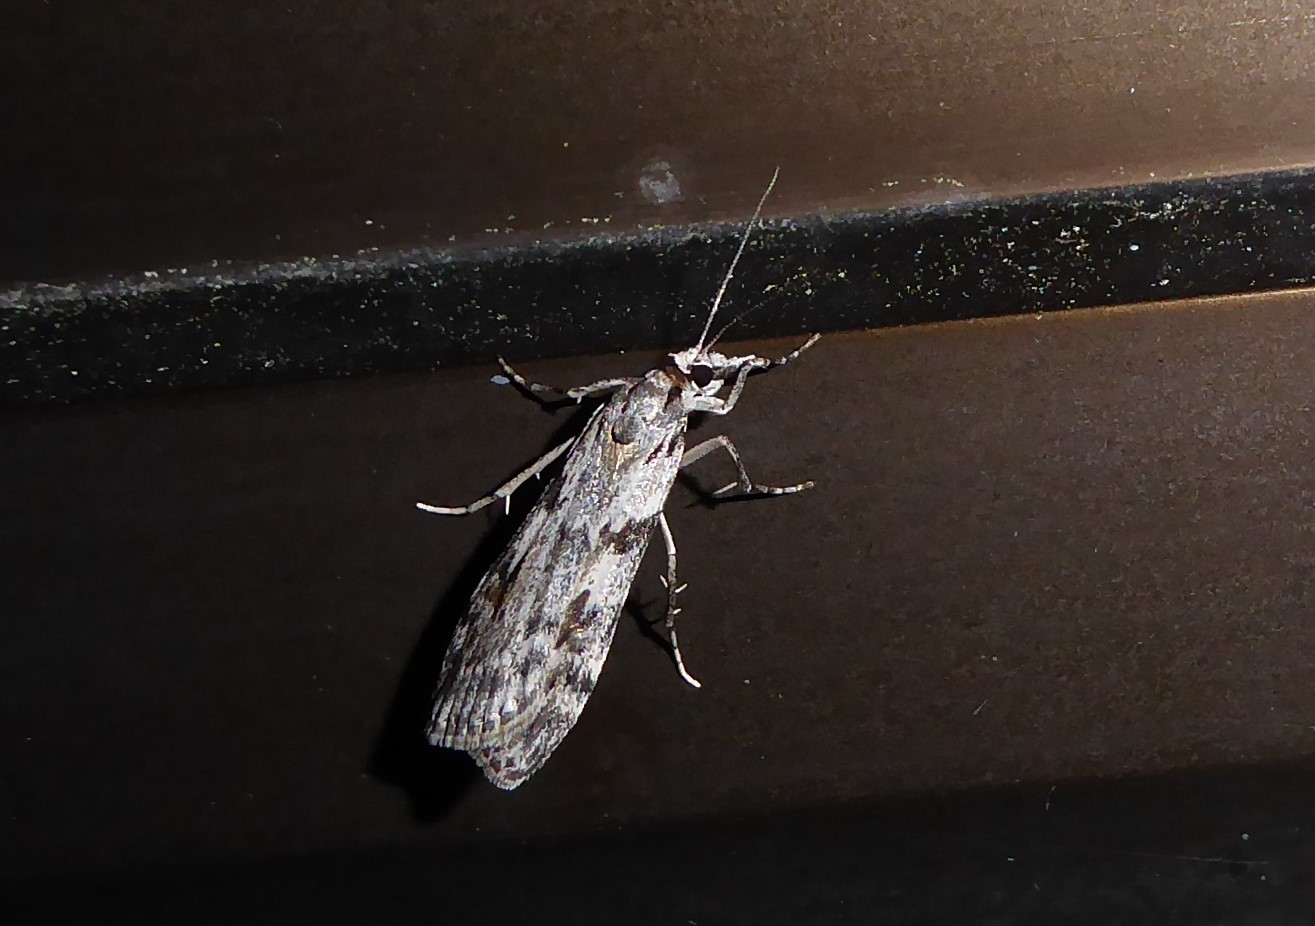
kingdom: Animalia
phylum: Arthropoda
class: Insecta
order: Lepidoptera
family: Crambidae
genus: Scoparia
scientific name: Scoparia halopis
